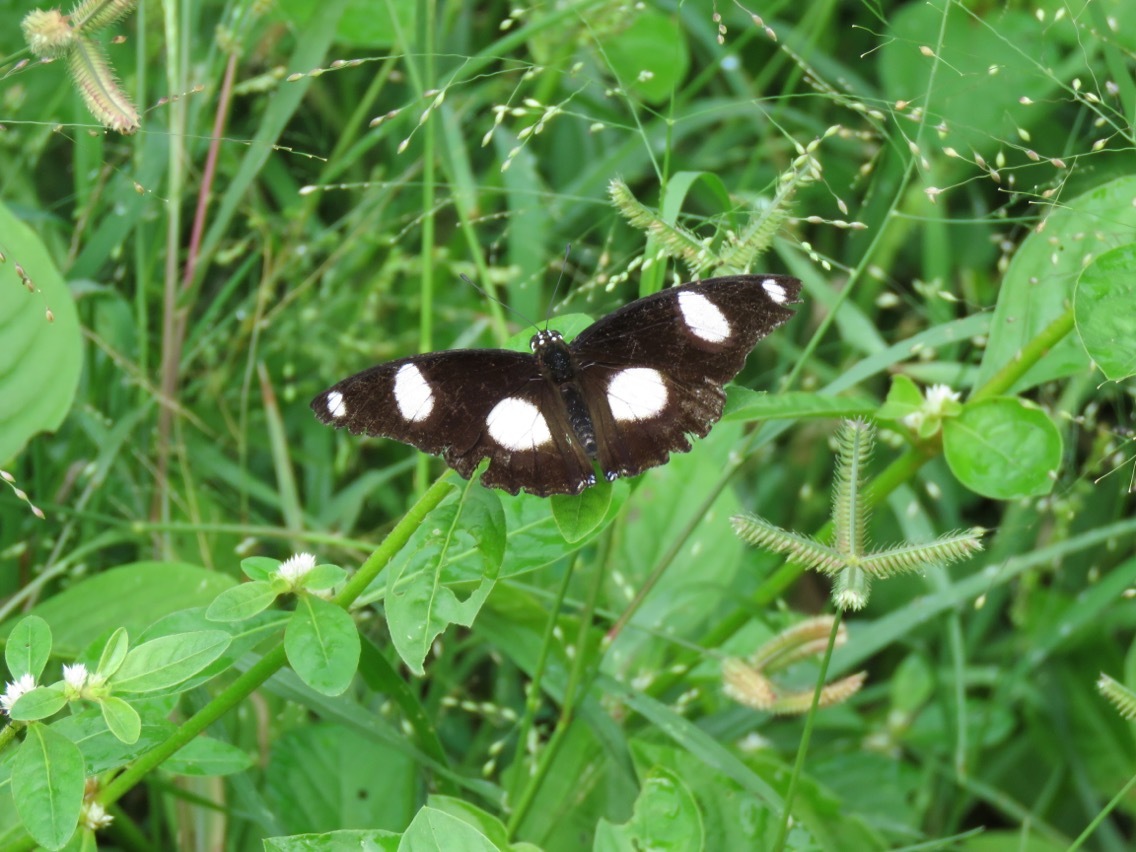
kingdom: Animalia
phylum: Arthropoda
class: Insecta
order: Lepidoptera
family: Nymphalidae
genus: Hypolimnas
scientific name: Hypolimnas misippus
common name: False plain tiger
